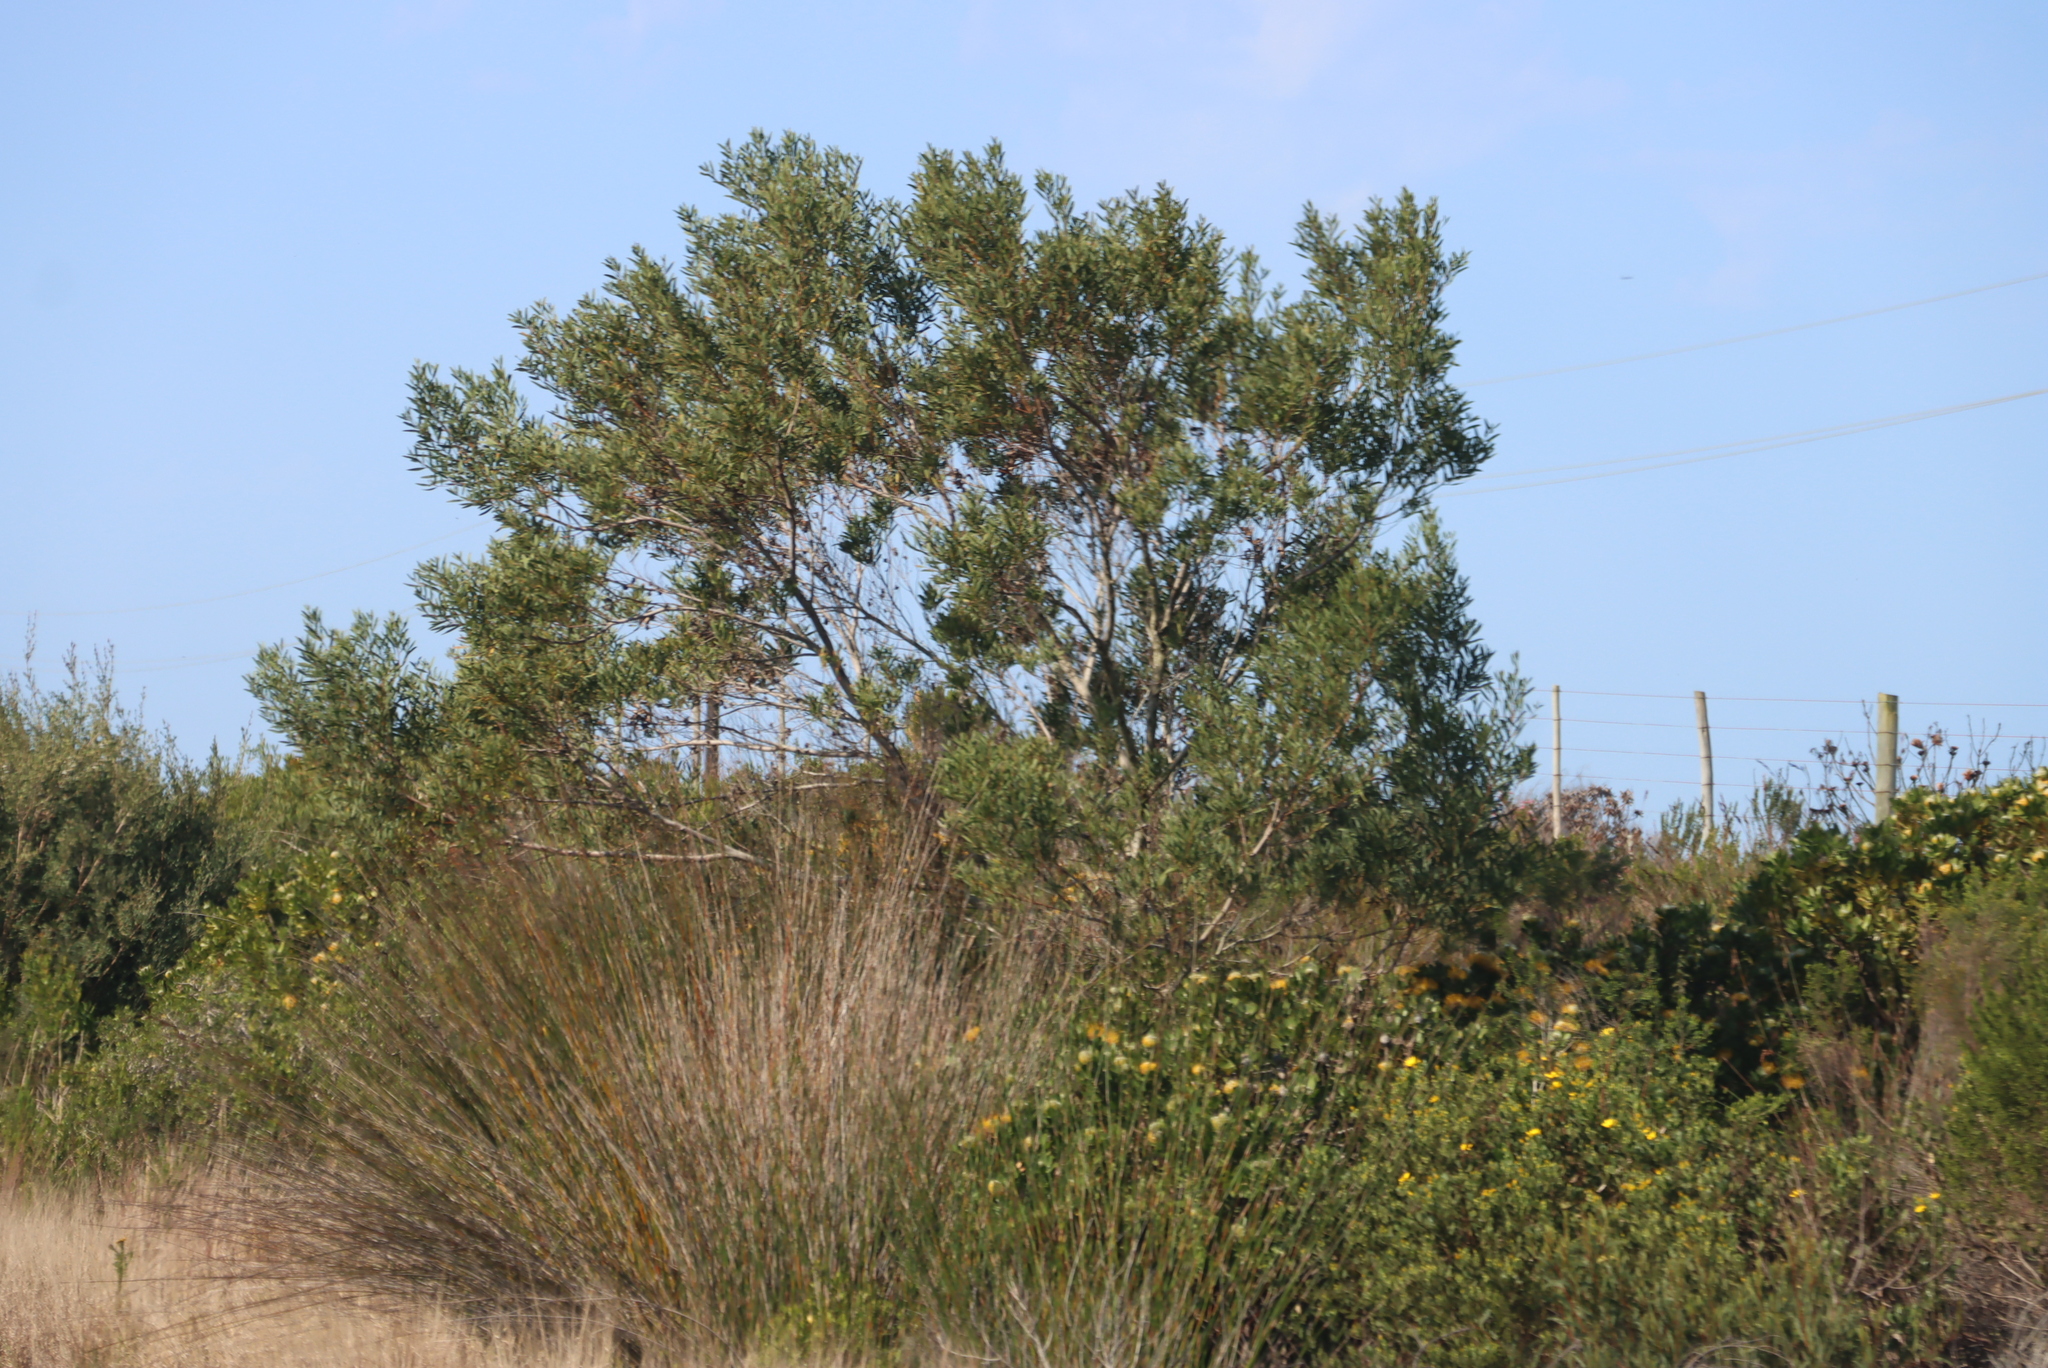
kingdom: Plantae
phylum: Tracheophyta
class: Magnoliopsida
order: Fabales
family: Fabaceae
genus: Acacia
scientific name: Acacia cyclops
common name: Coastal wattle
